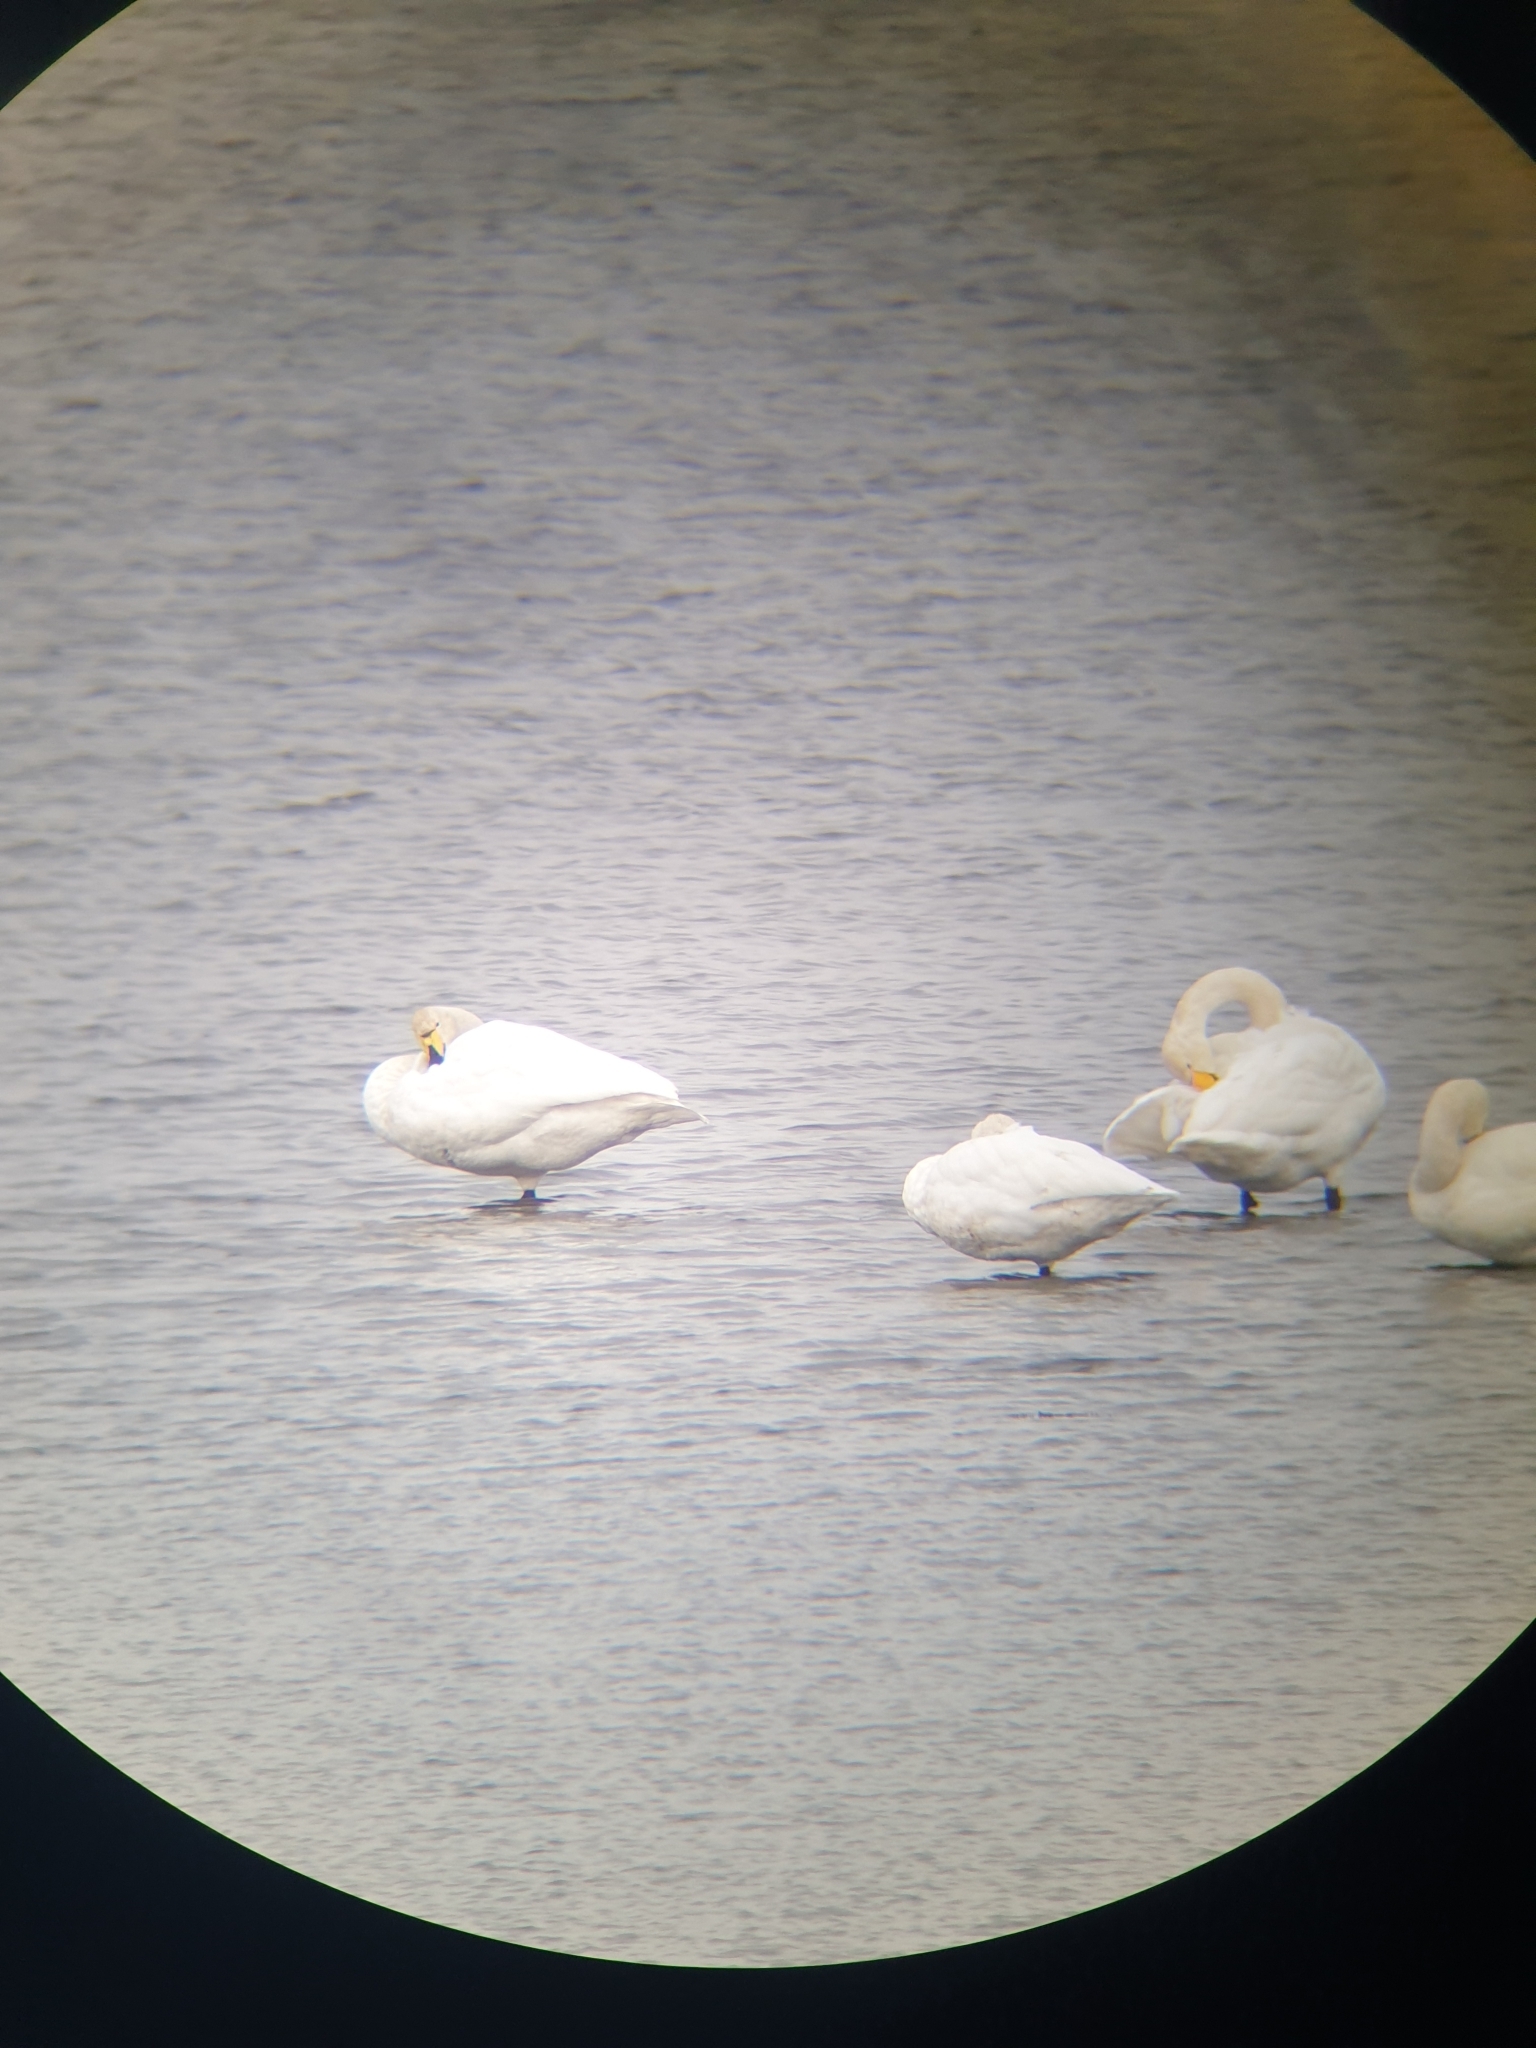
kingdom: Animalia
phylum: Chordata
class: Aves
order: Anseriformes
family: Anatidae
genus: Cygnus
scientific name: Cygnus cygnus
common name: Whooper swan
